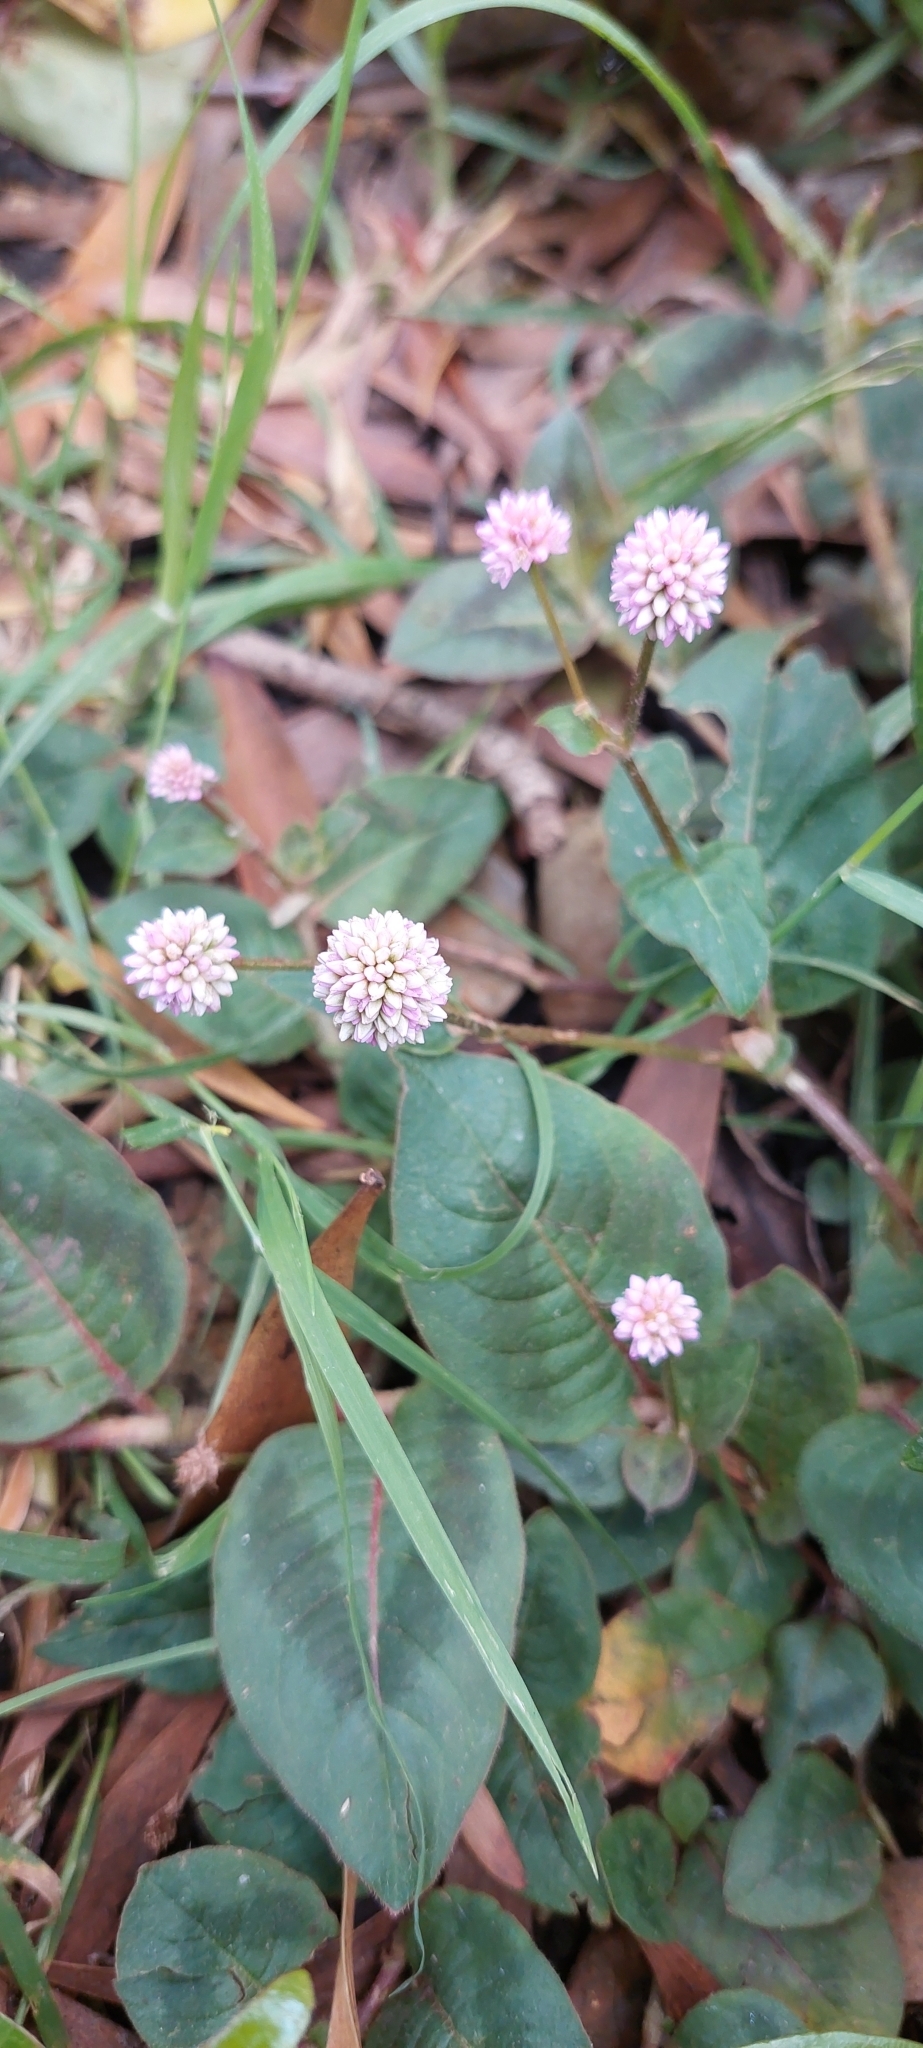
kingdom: Plantae
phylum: Tracheophyta
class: Magnoliopsida
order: Caryophyllales
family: Polygonaceae
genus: Persicaria
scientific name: Persicaria capitata
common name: Pinkhead smartweed
